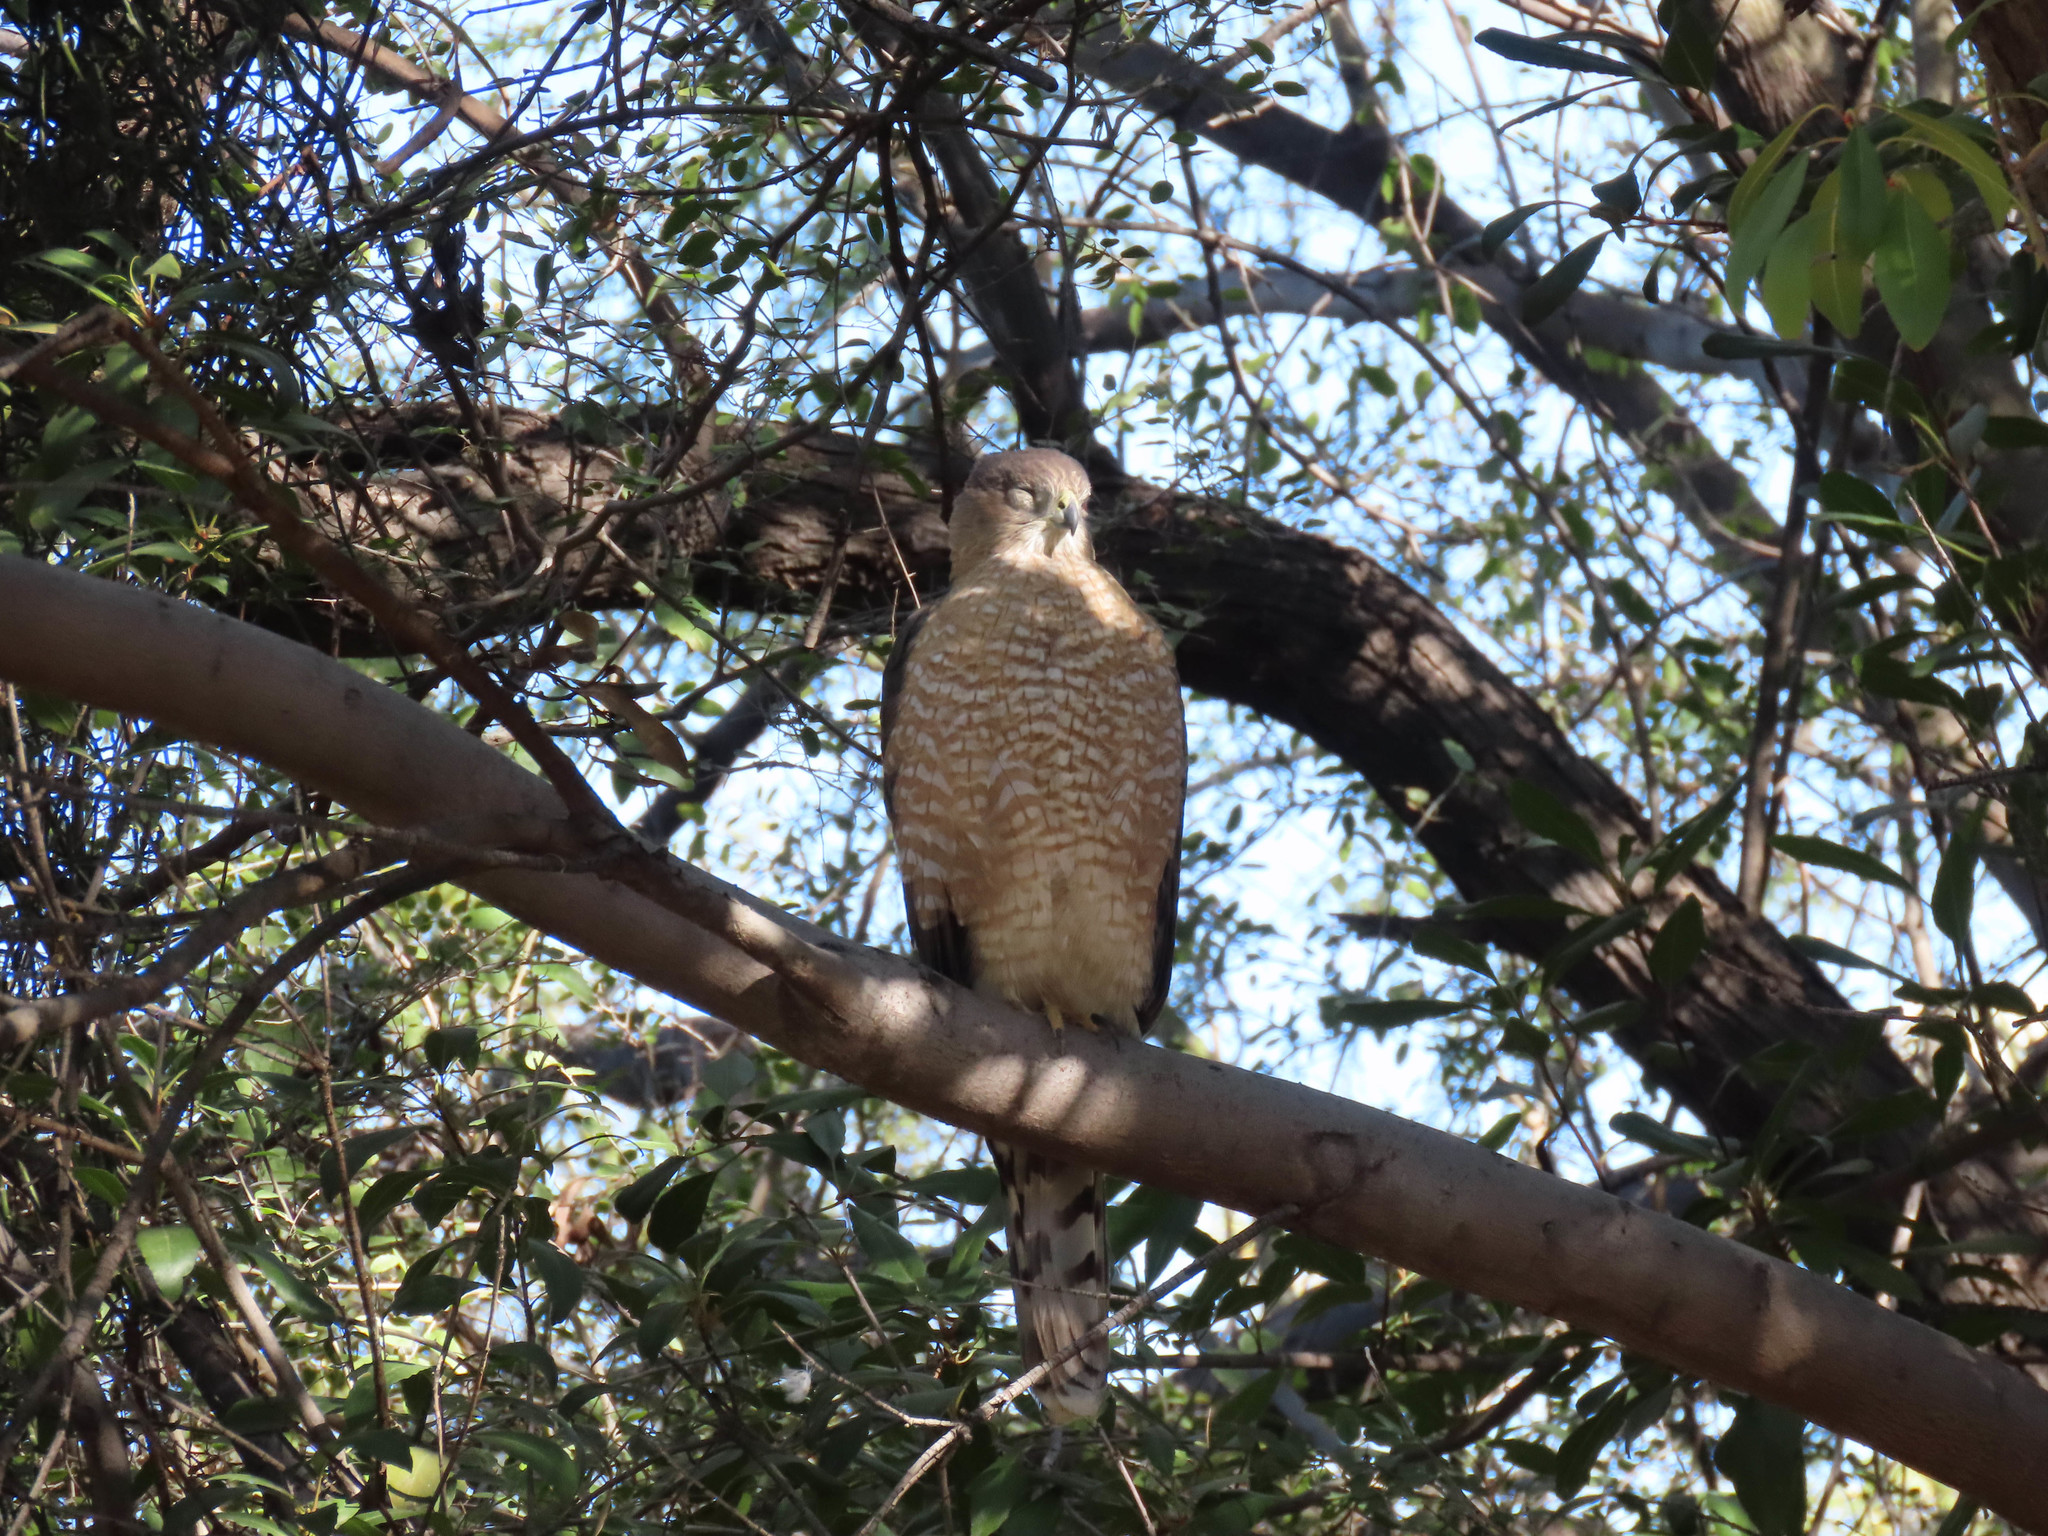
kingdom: Animalia
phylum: Chordata
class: Aves
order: Accipitriformes
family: Accipitridae
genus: Accipiter
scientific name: Accipiter cooperii
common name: Cooper's hawk
